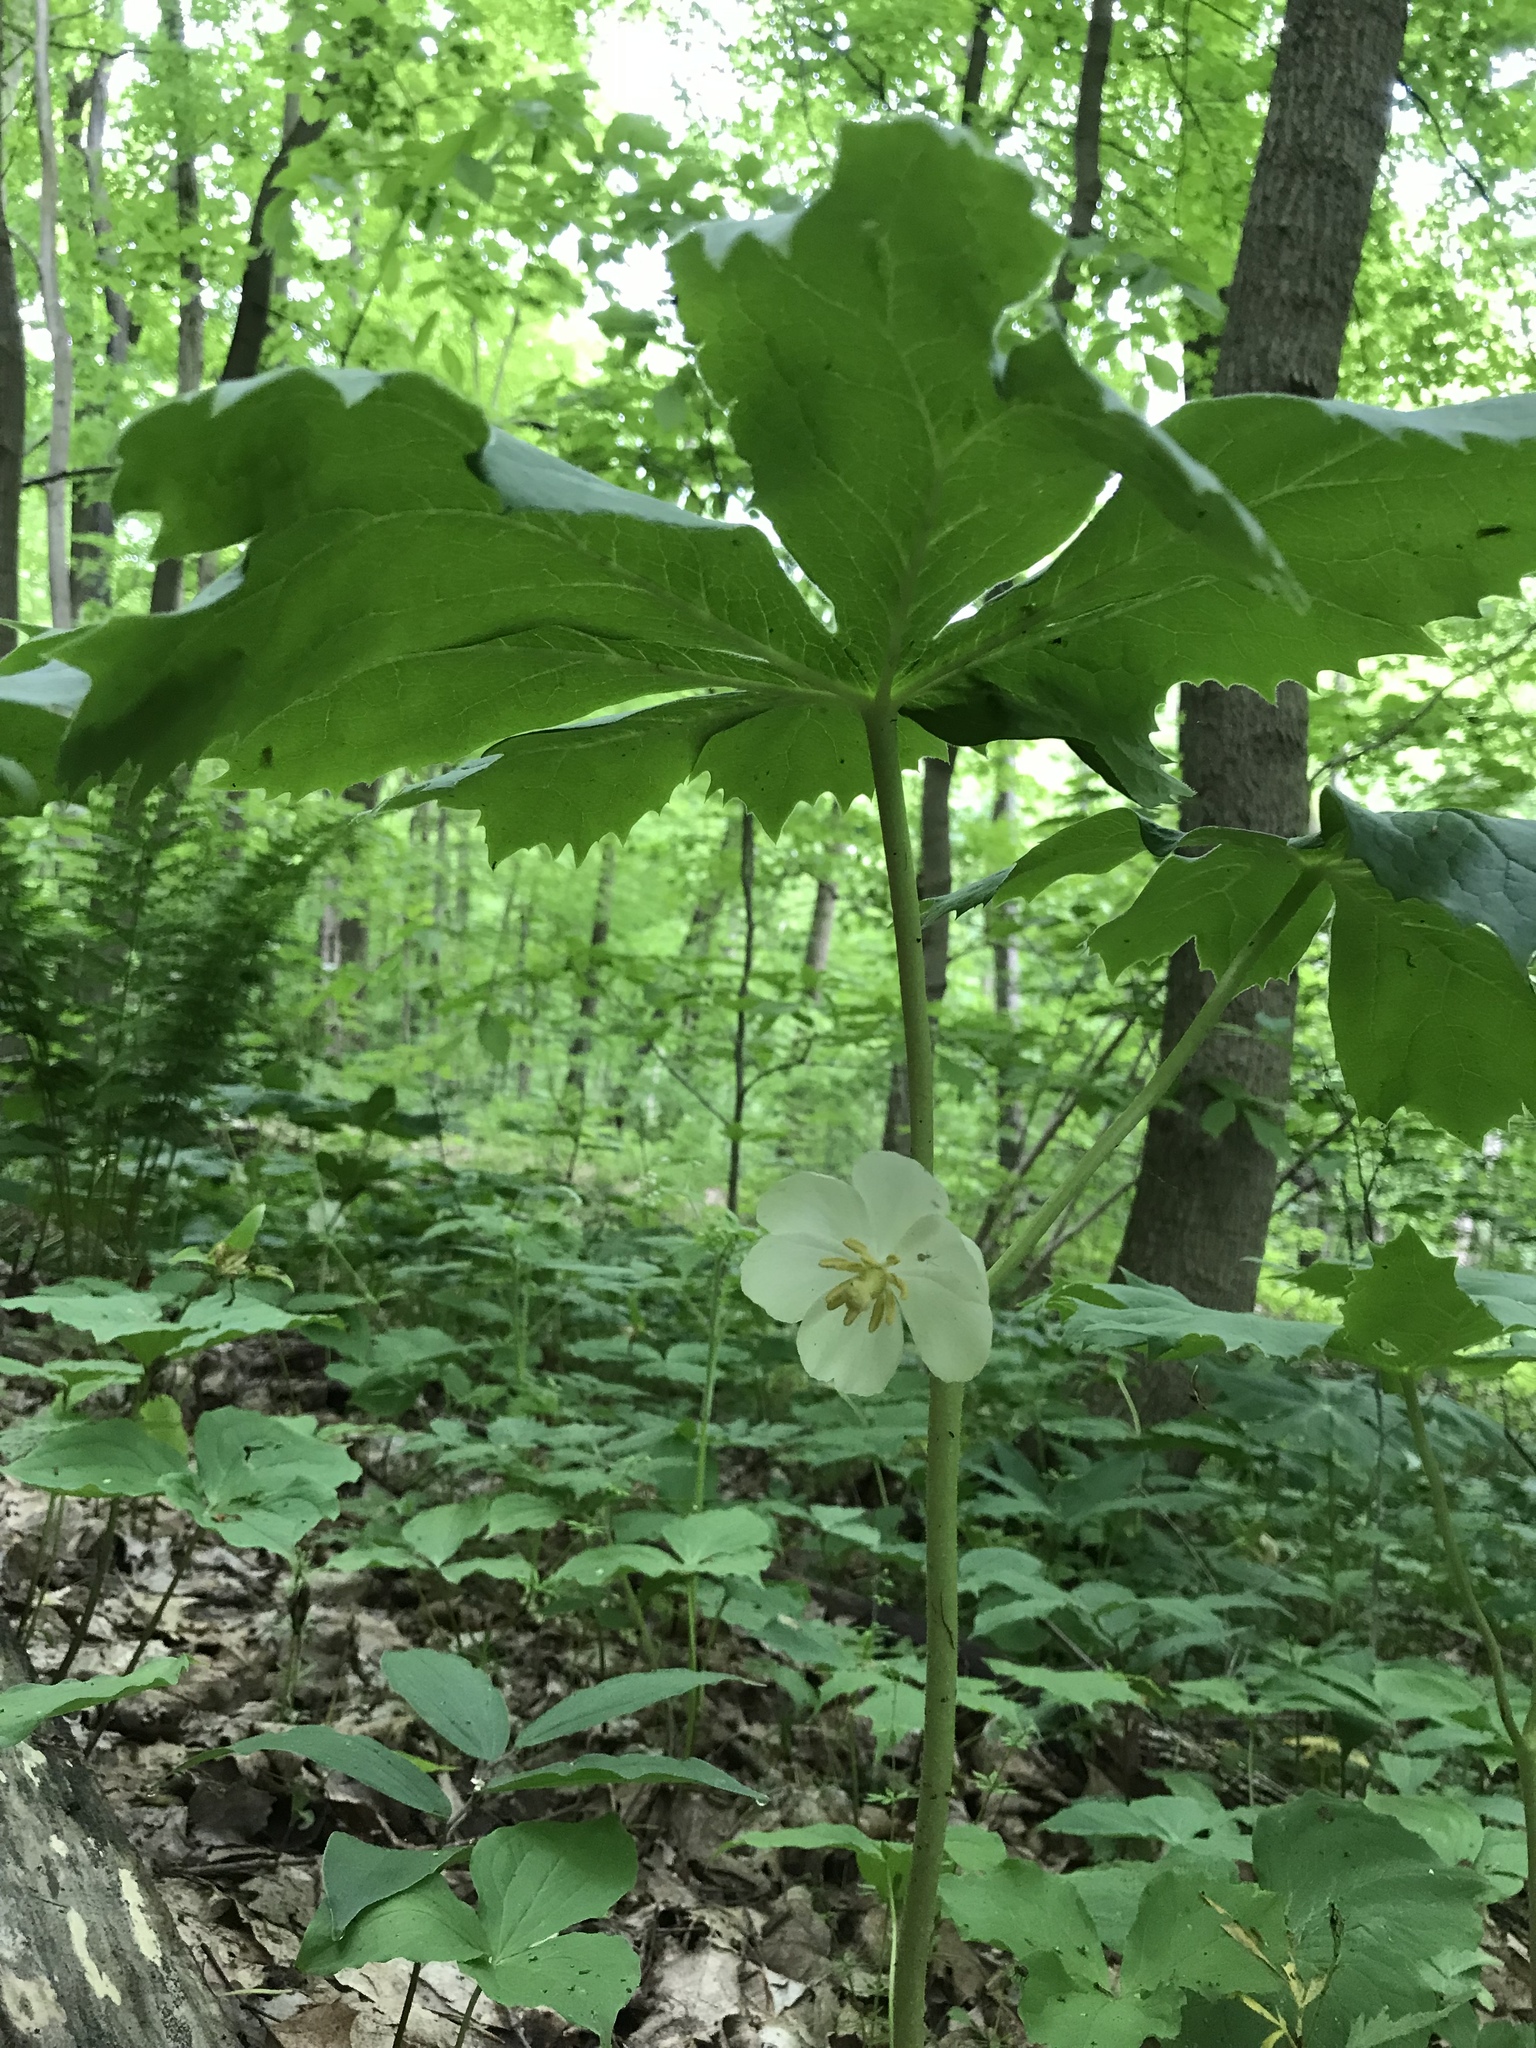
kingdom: Plantae
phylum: Tracheophyta
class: Magnoliopsida
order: Ranunculales
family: Berberidaceae
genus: Podophyllum
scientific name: Podophyllum peltatum
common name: Wild mandrake
